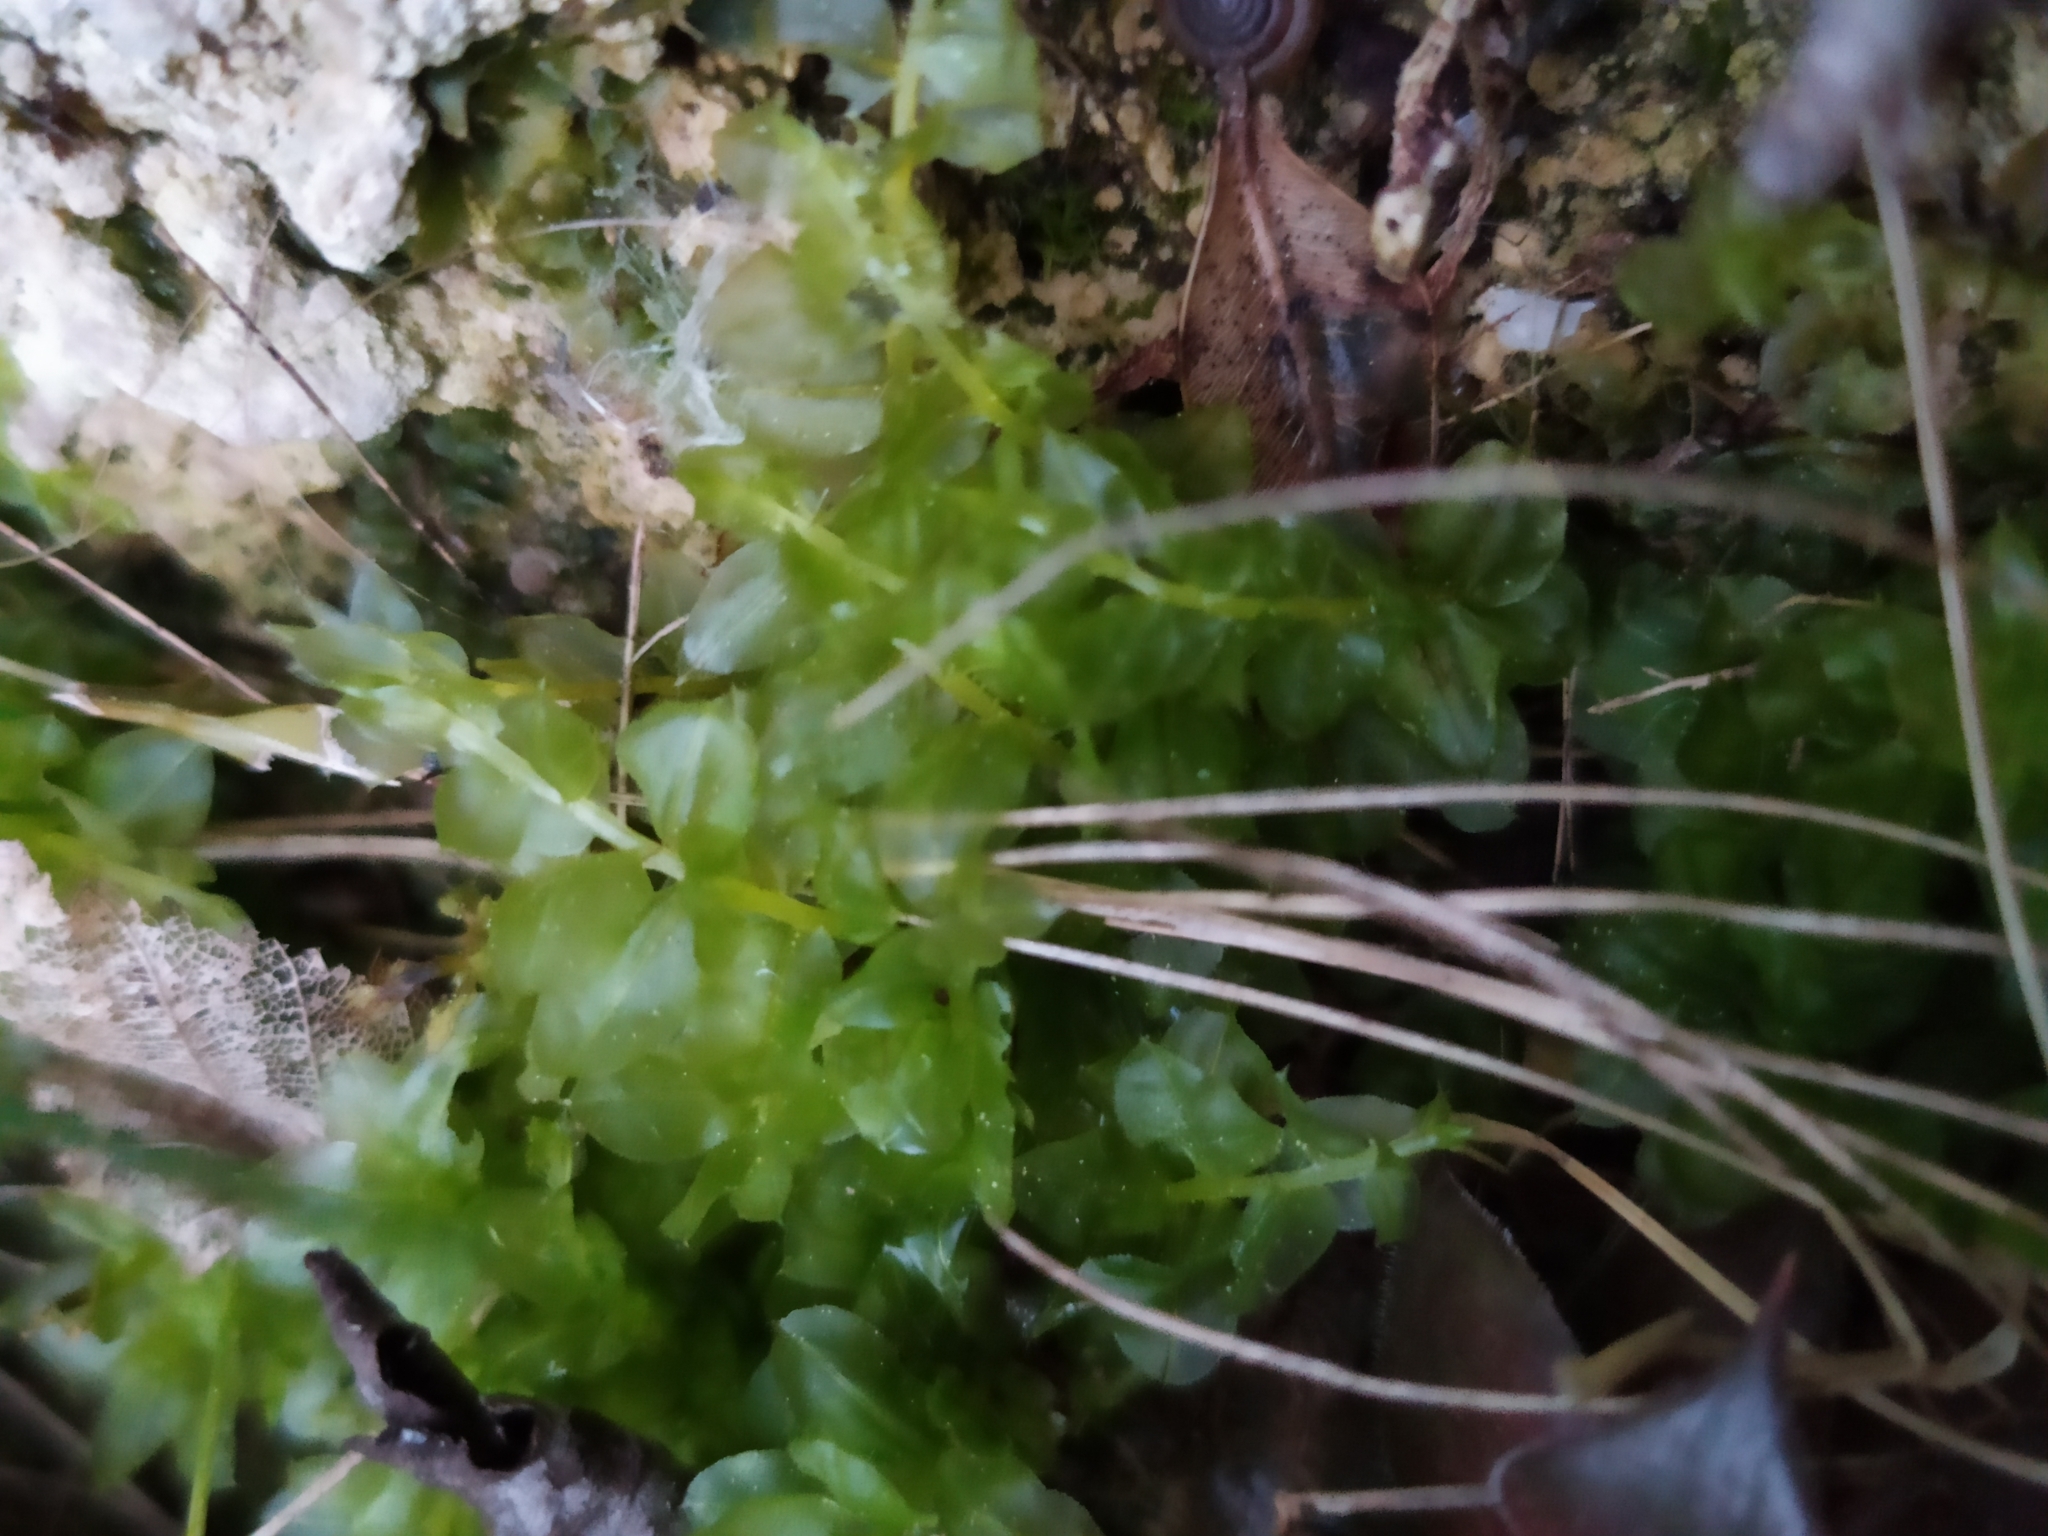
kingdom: Plantae
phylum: Bryophyta
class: Bryopsida
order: Bryales
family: Mniaceae
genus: Plagiomnium
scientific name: Plagiomnium affine
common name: Many-fruited thyme-moss
